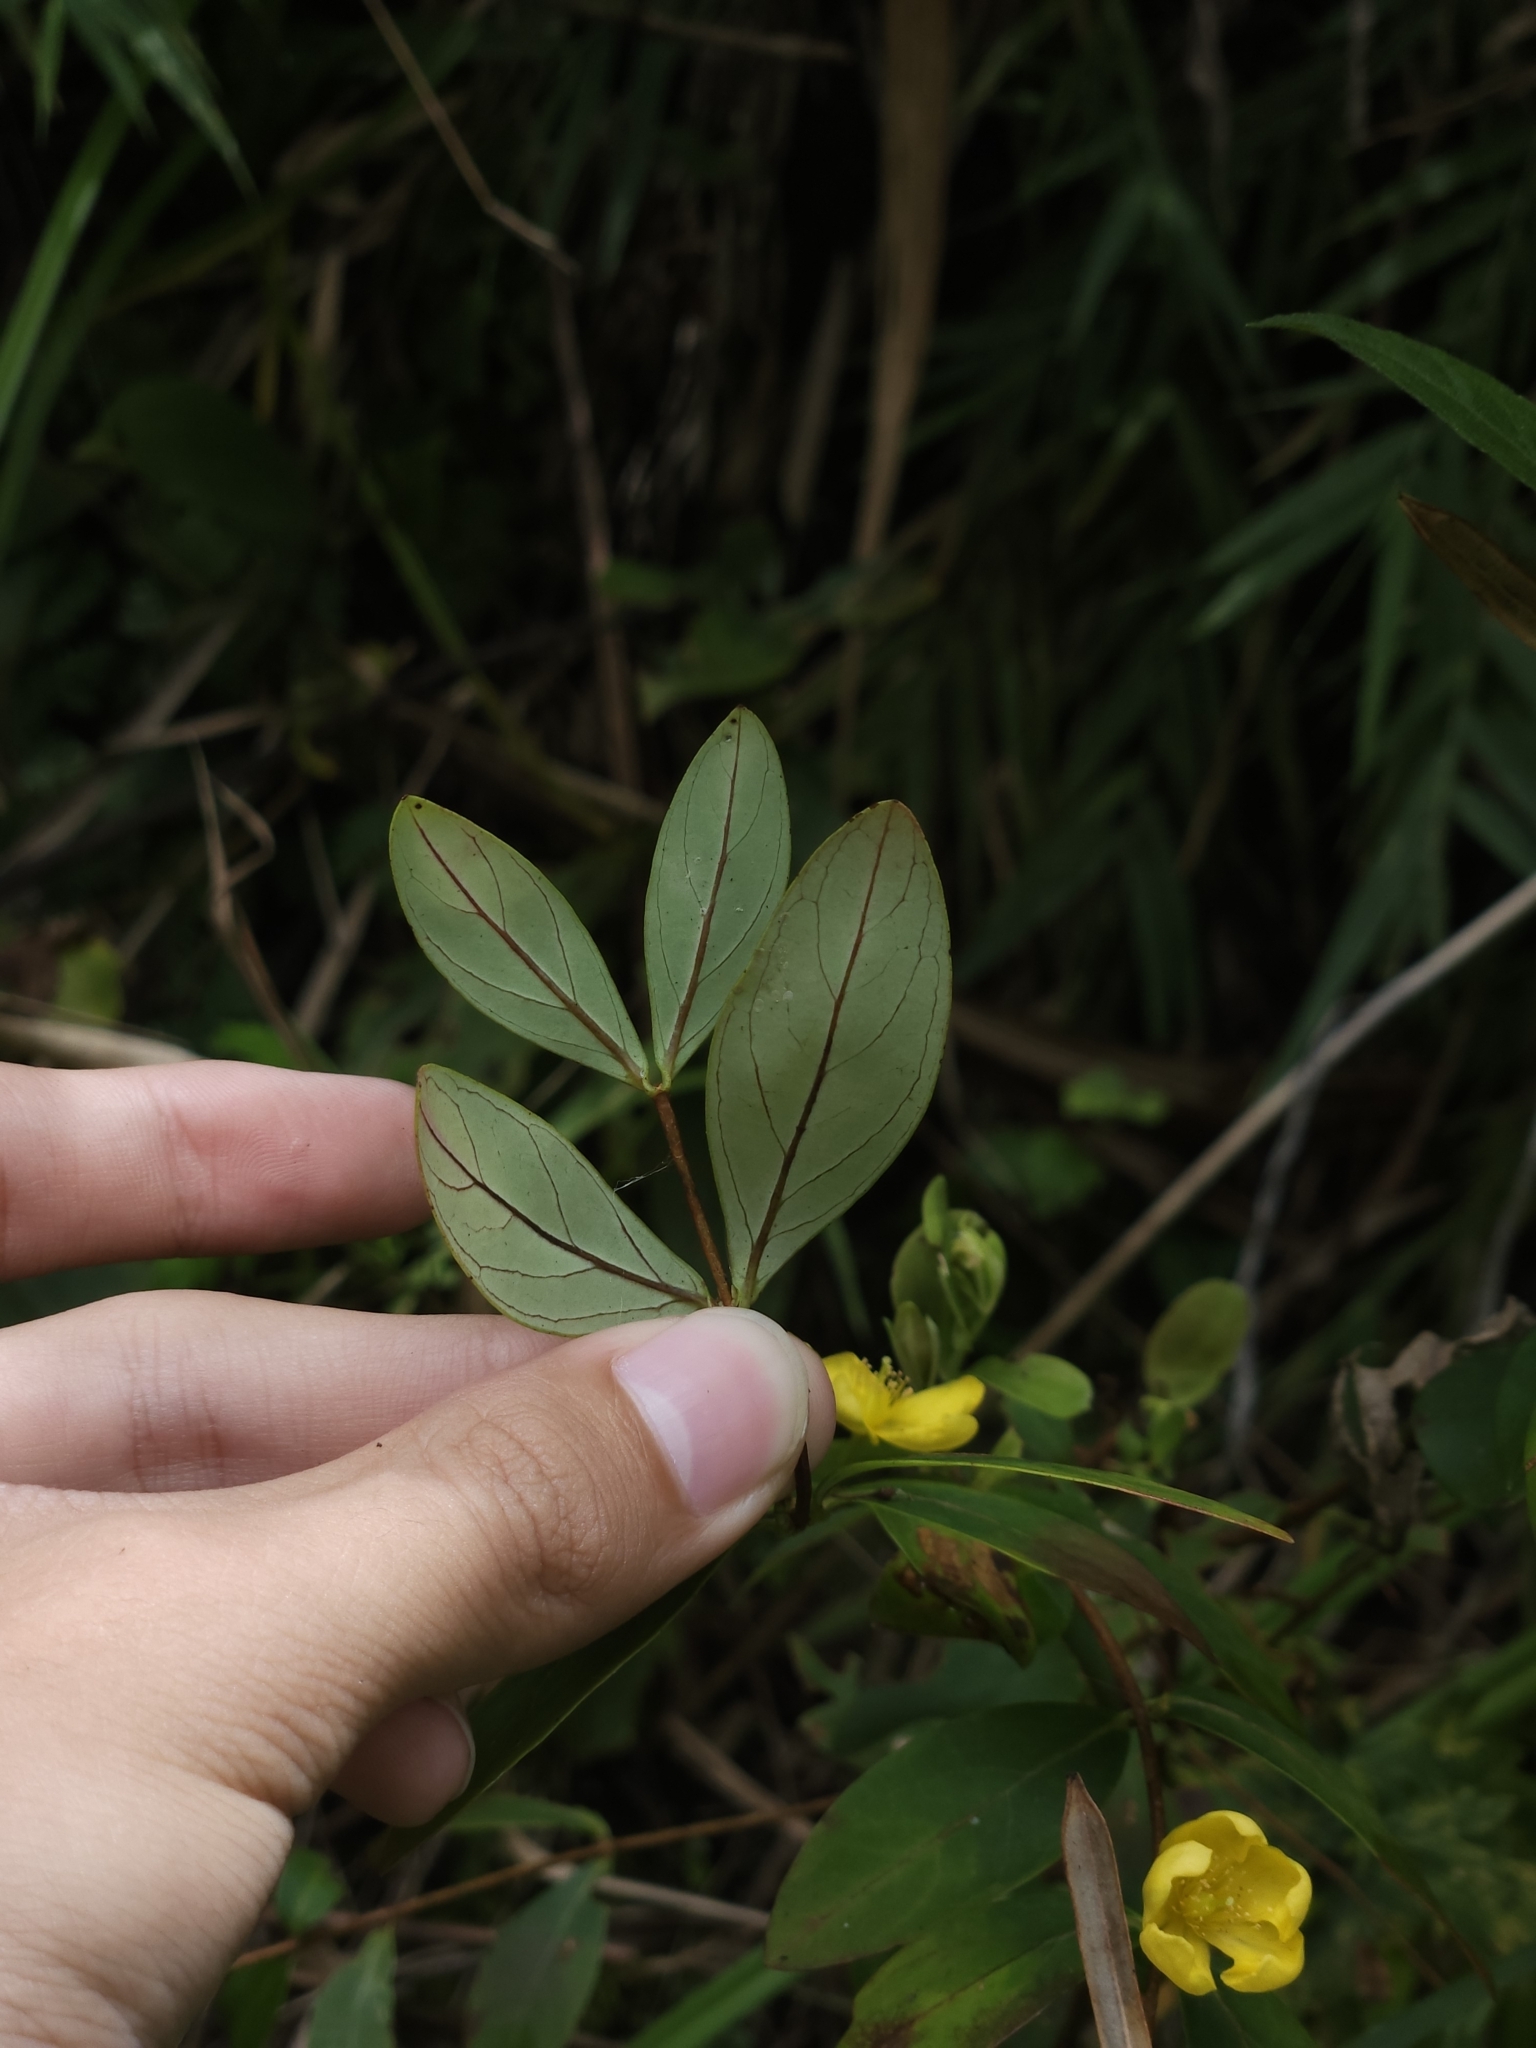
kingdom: Plantae
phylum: Tracheophyta
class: Magnoliopsida
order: Malpighiales
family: Hypericaceae
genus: Hypericum
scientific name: Hypericum geminiflorum
